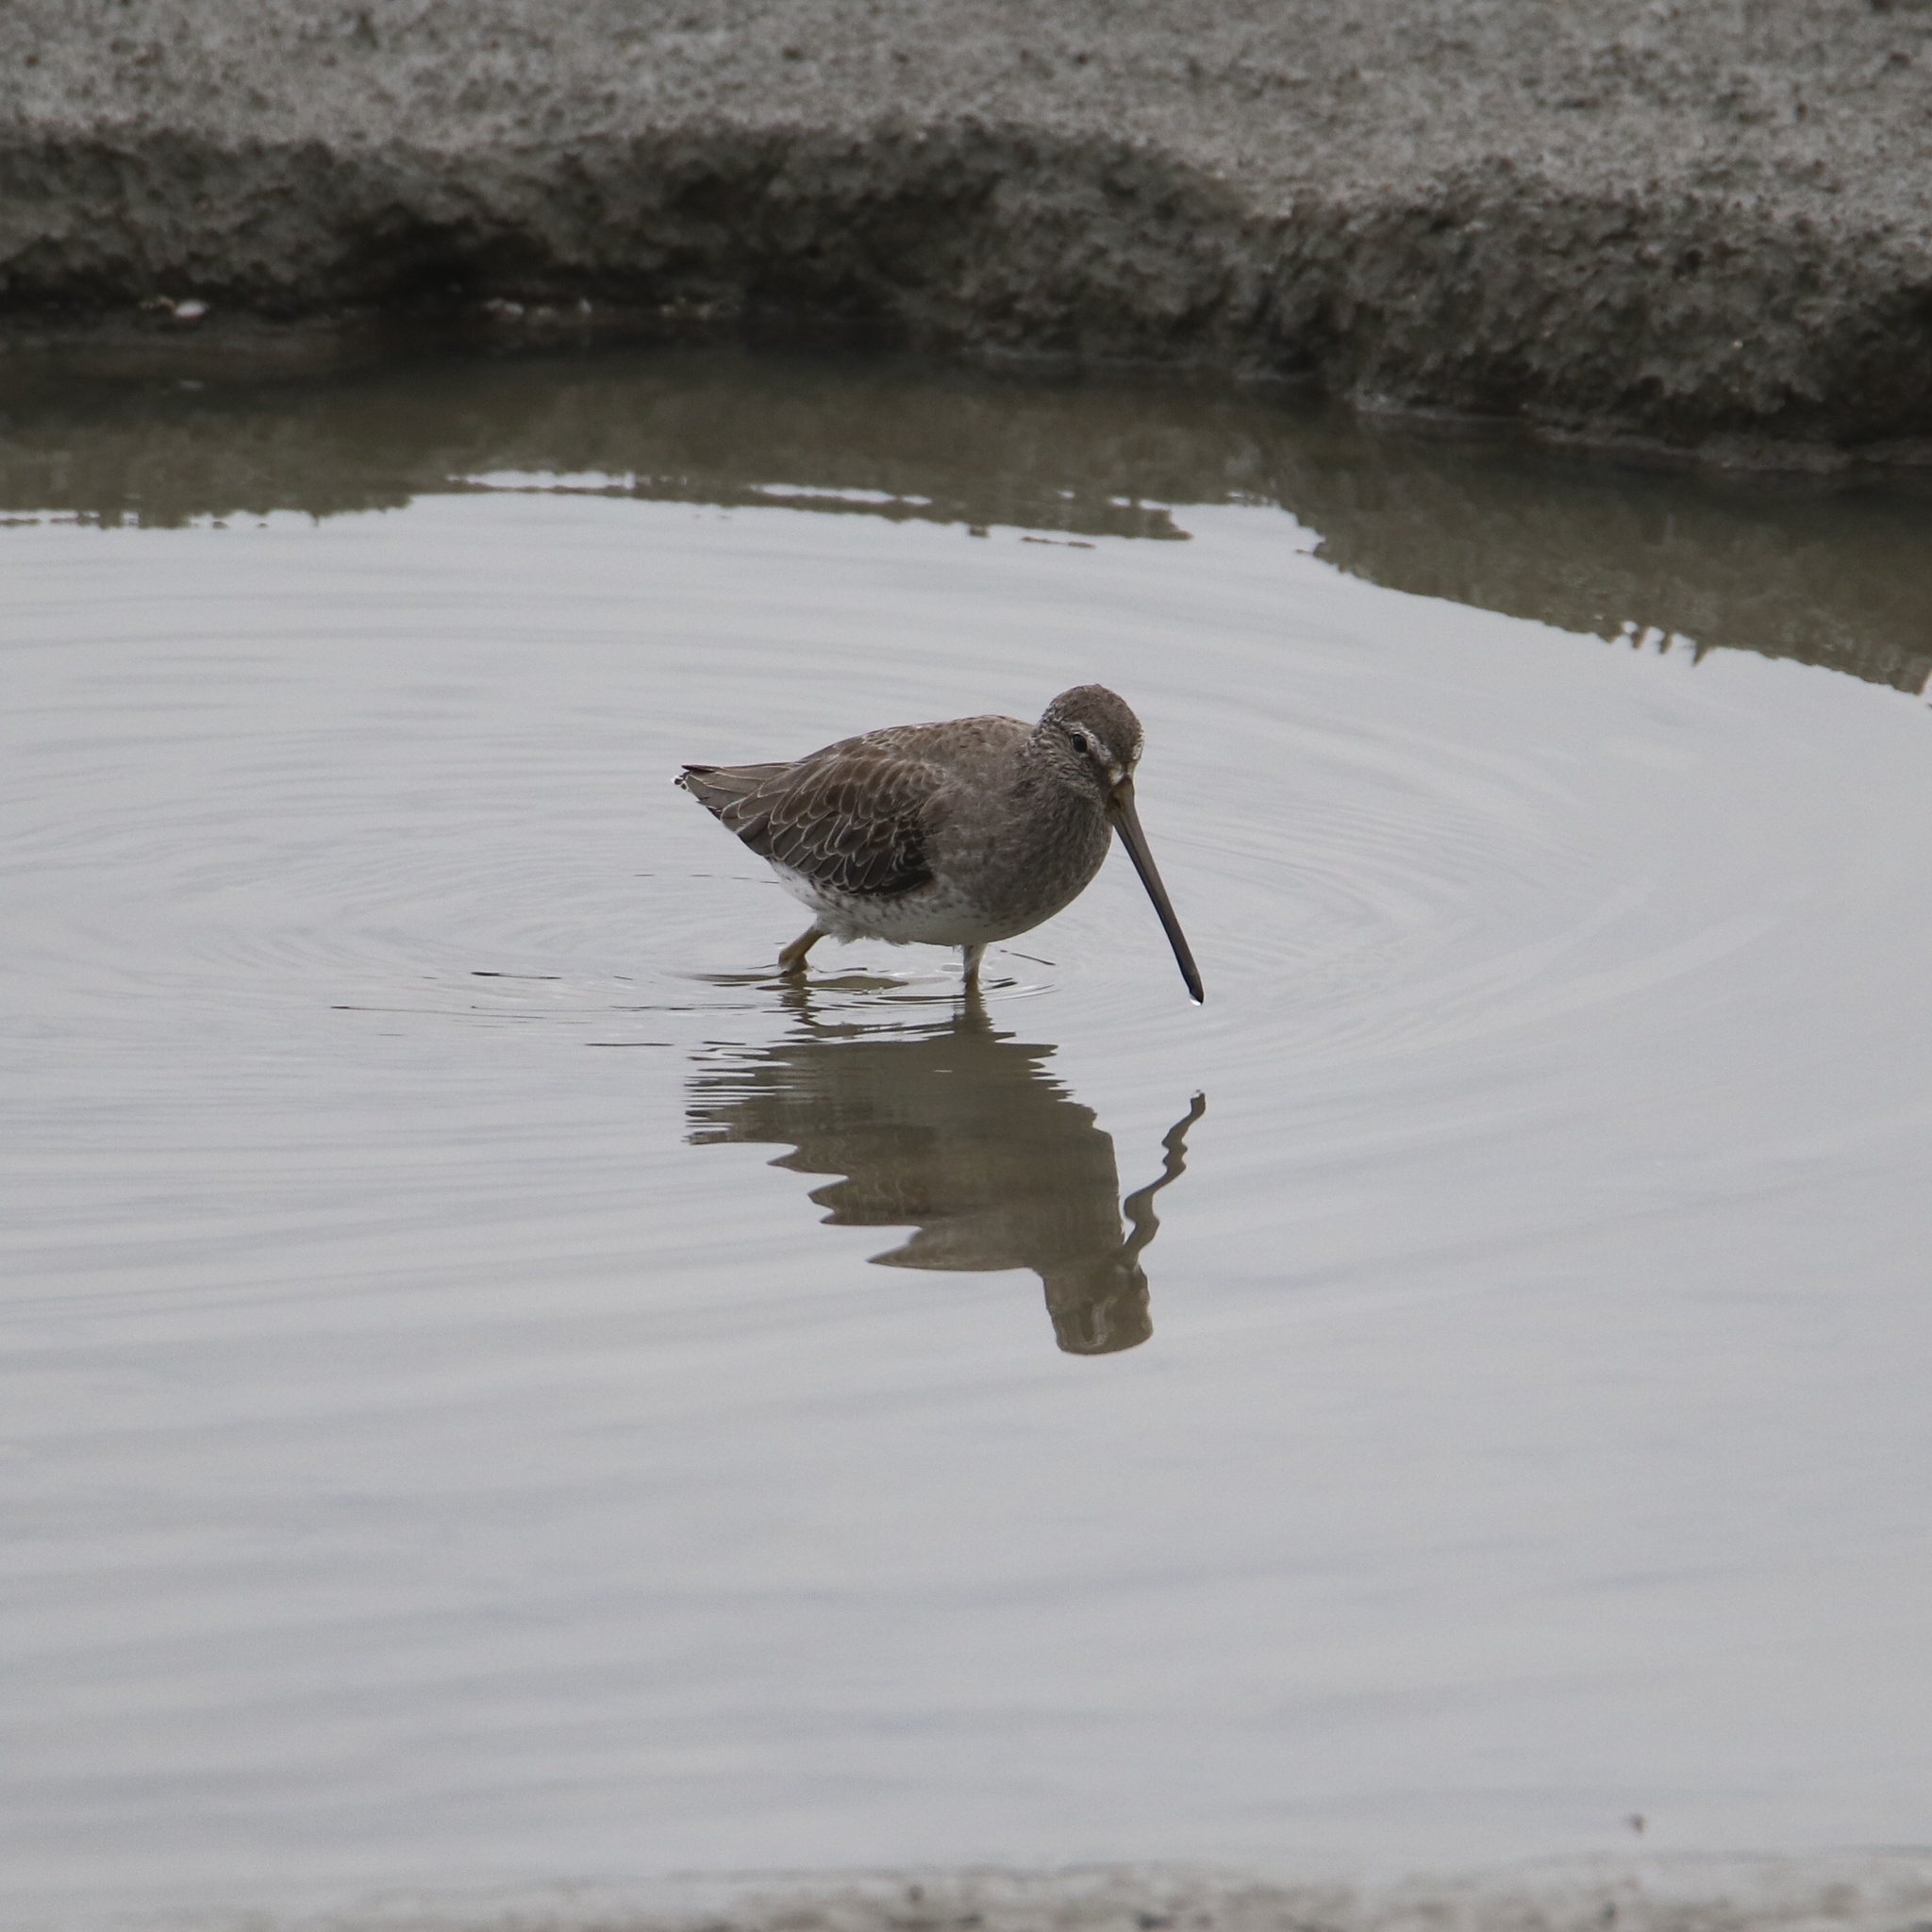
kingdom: Animalia
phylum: Chordata
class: Aves
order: Charadriiformes
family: Scolopacidae
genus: Limnodromus
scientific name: Limnodromus griseus
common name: Short-billed dowitcher
